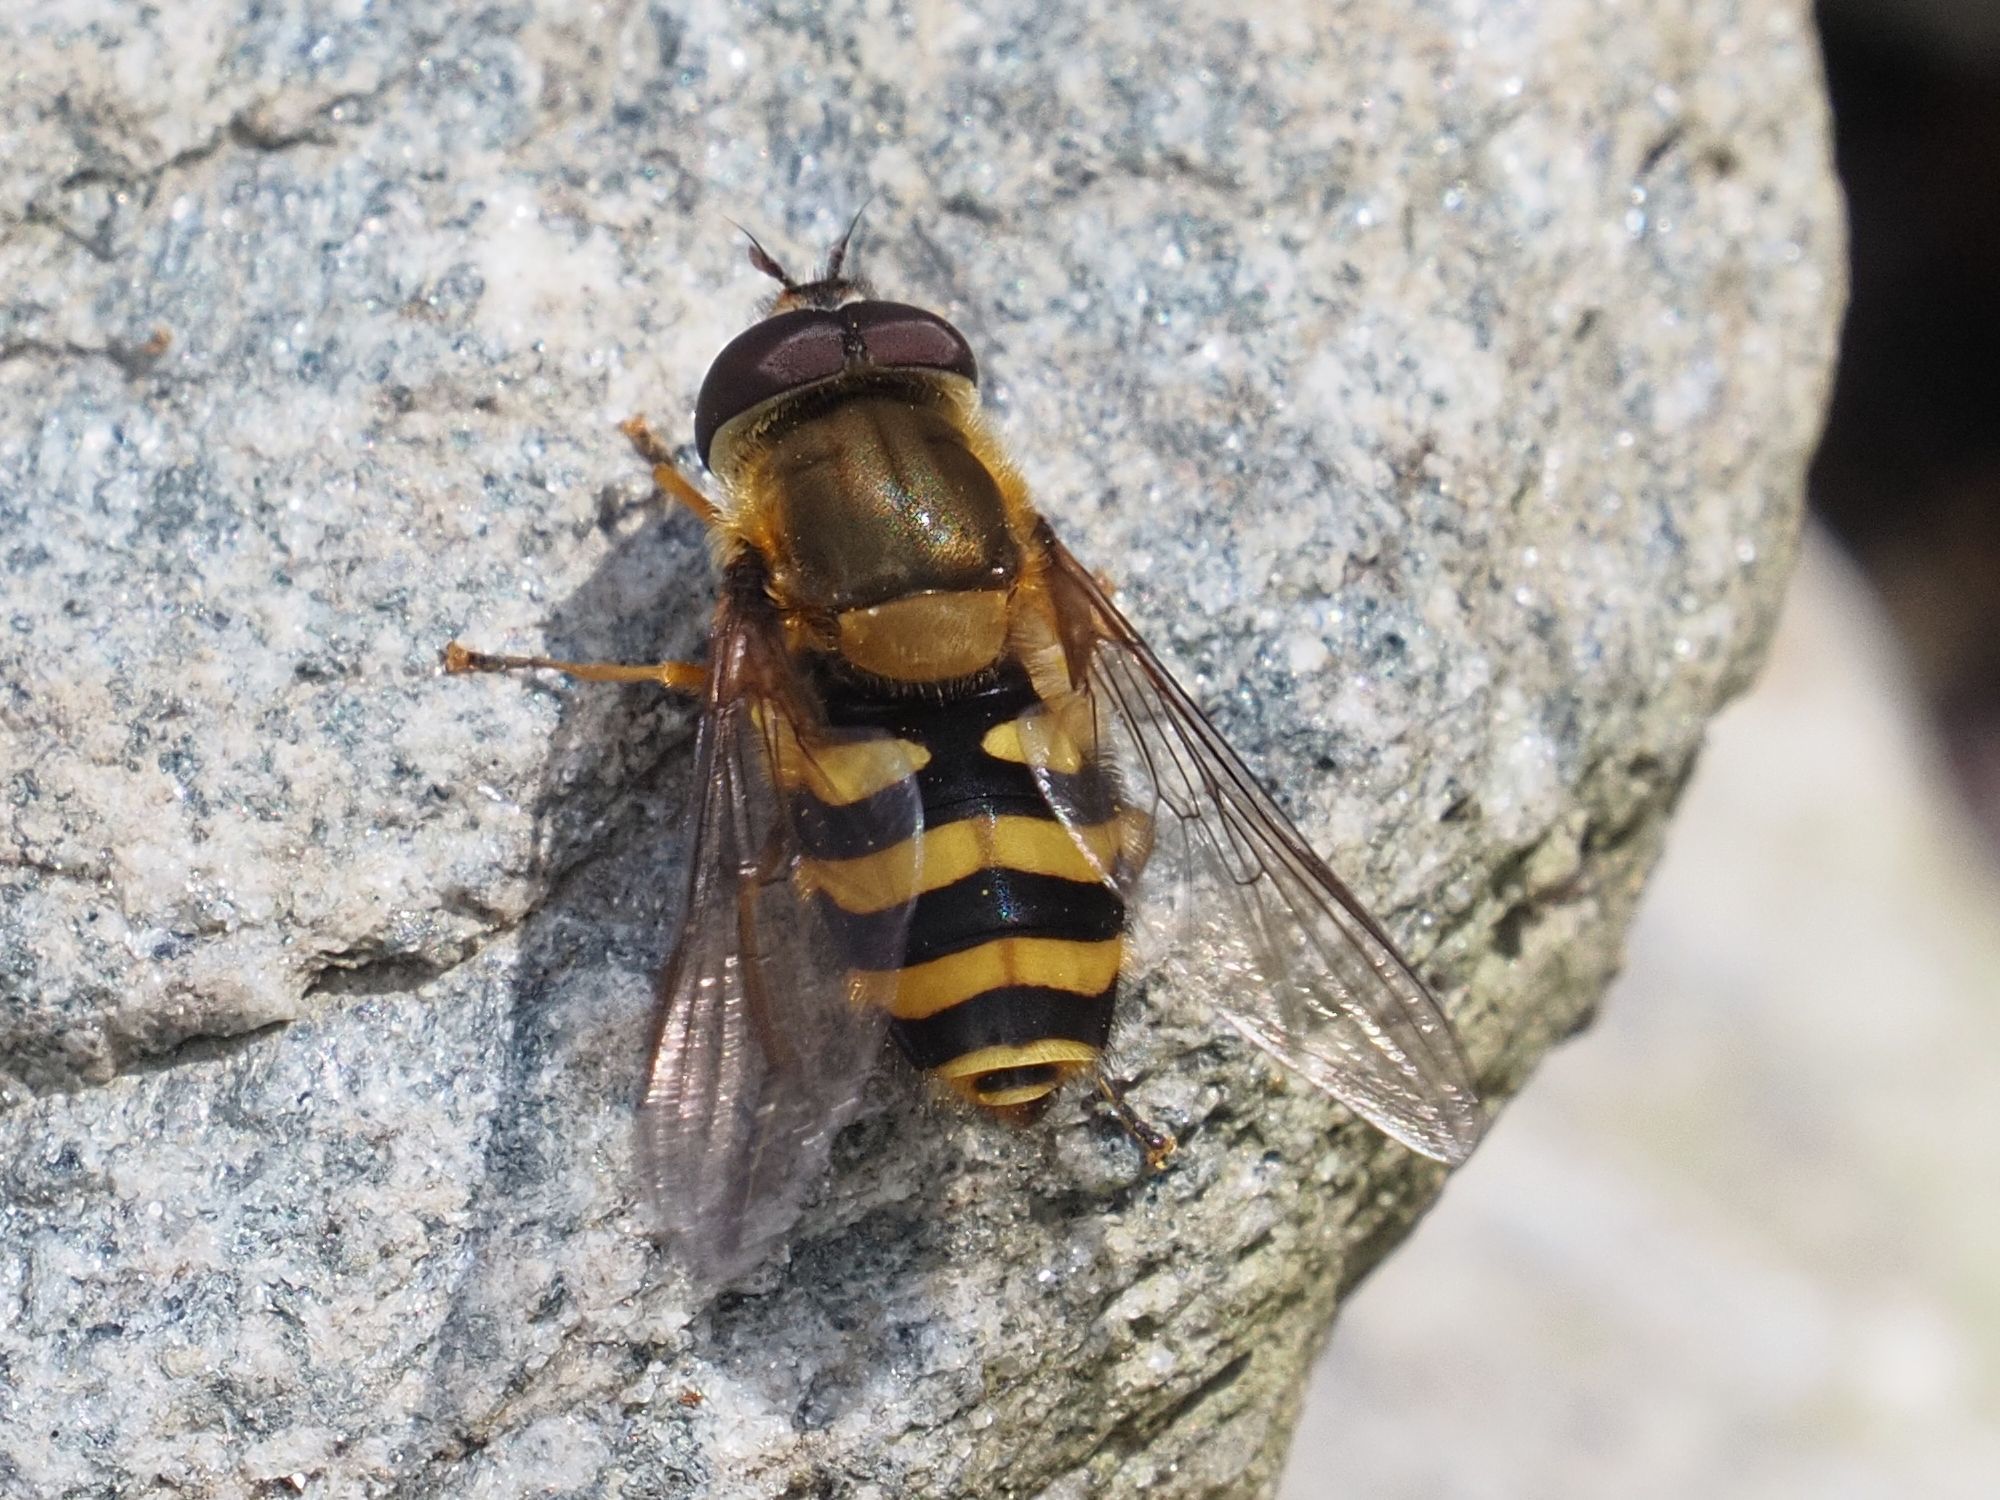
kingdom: Animalia
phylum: Arthropoda
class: Insecta
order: Diptera
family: Syrphidae
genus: Syrphus
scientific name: Syrphus
